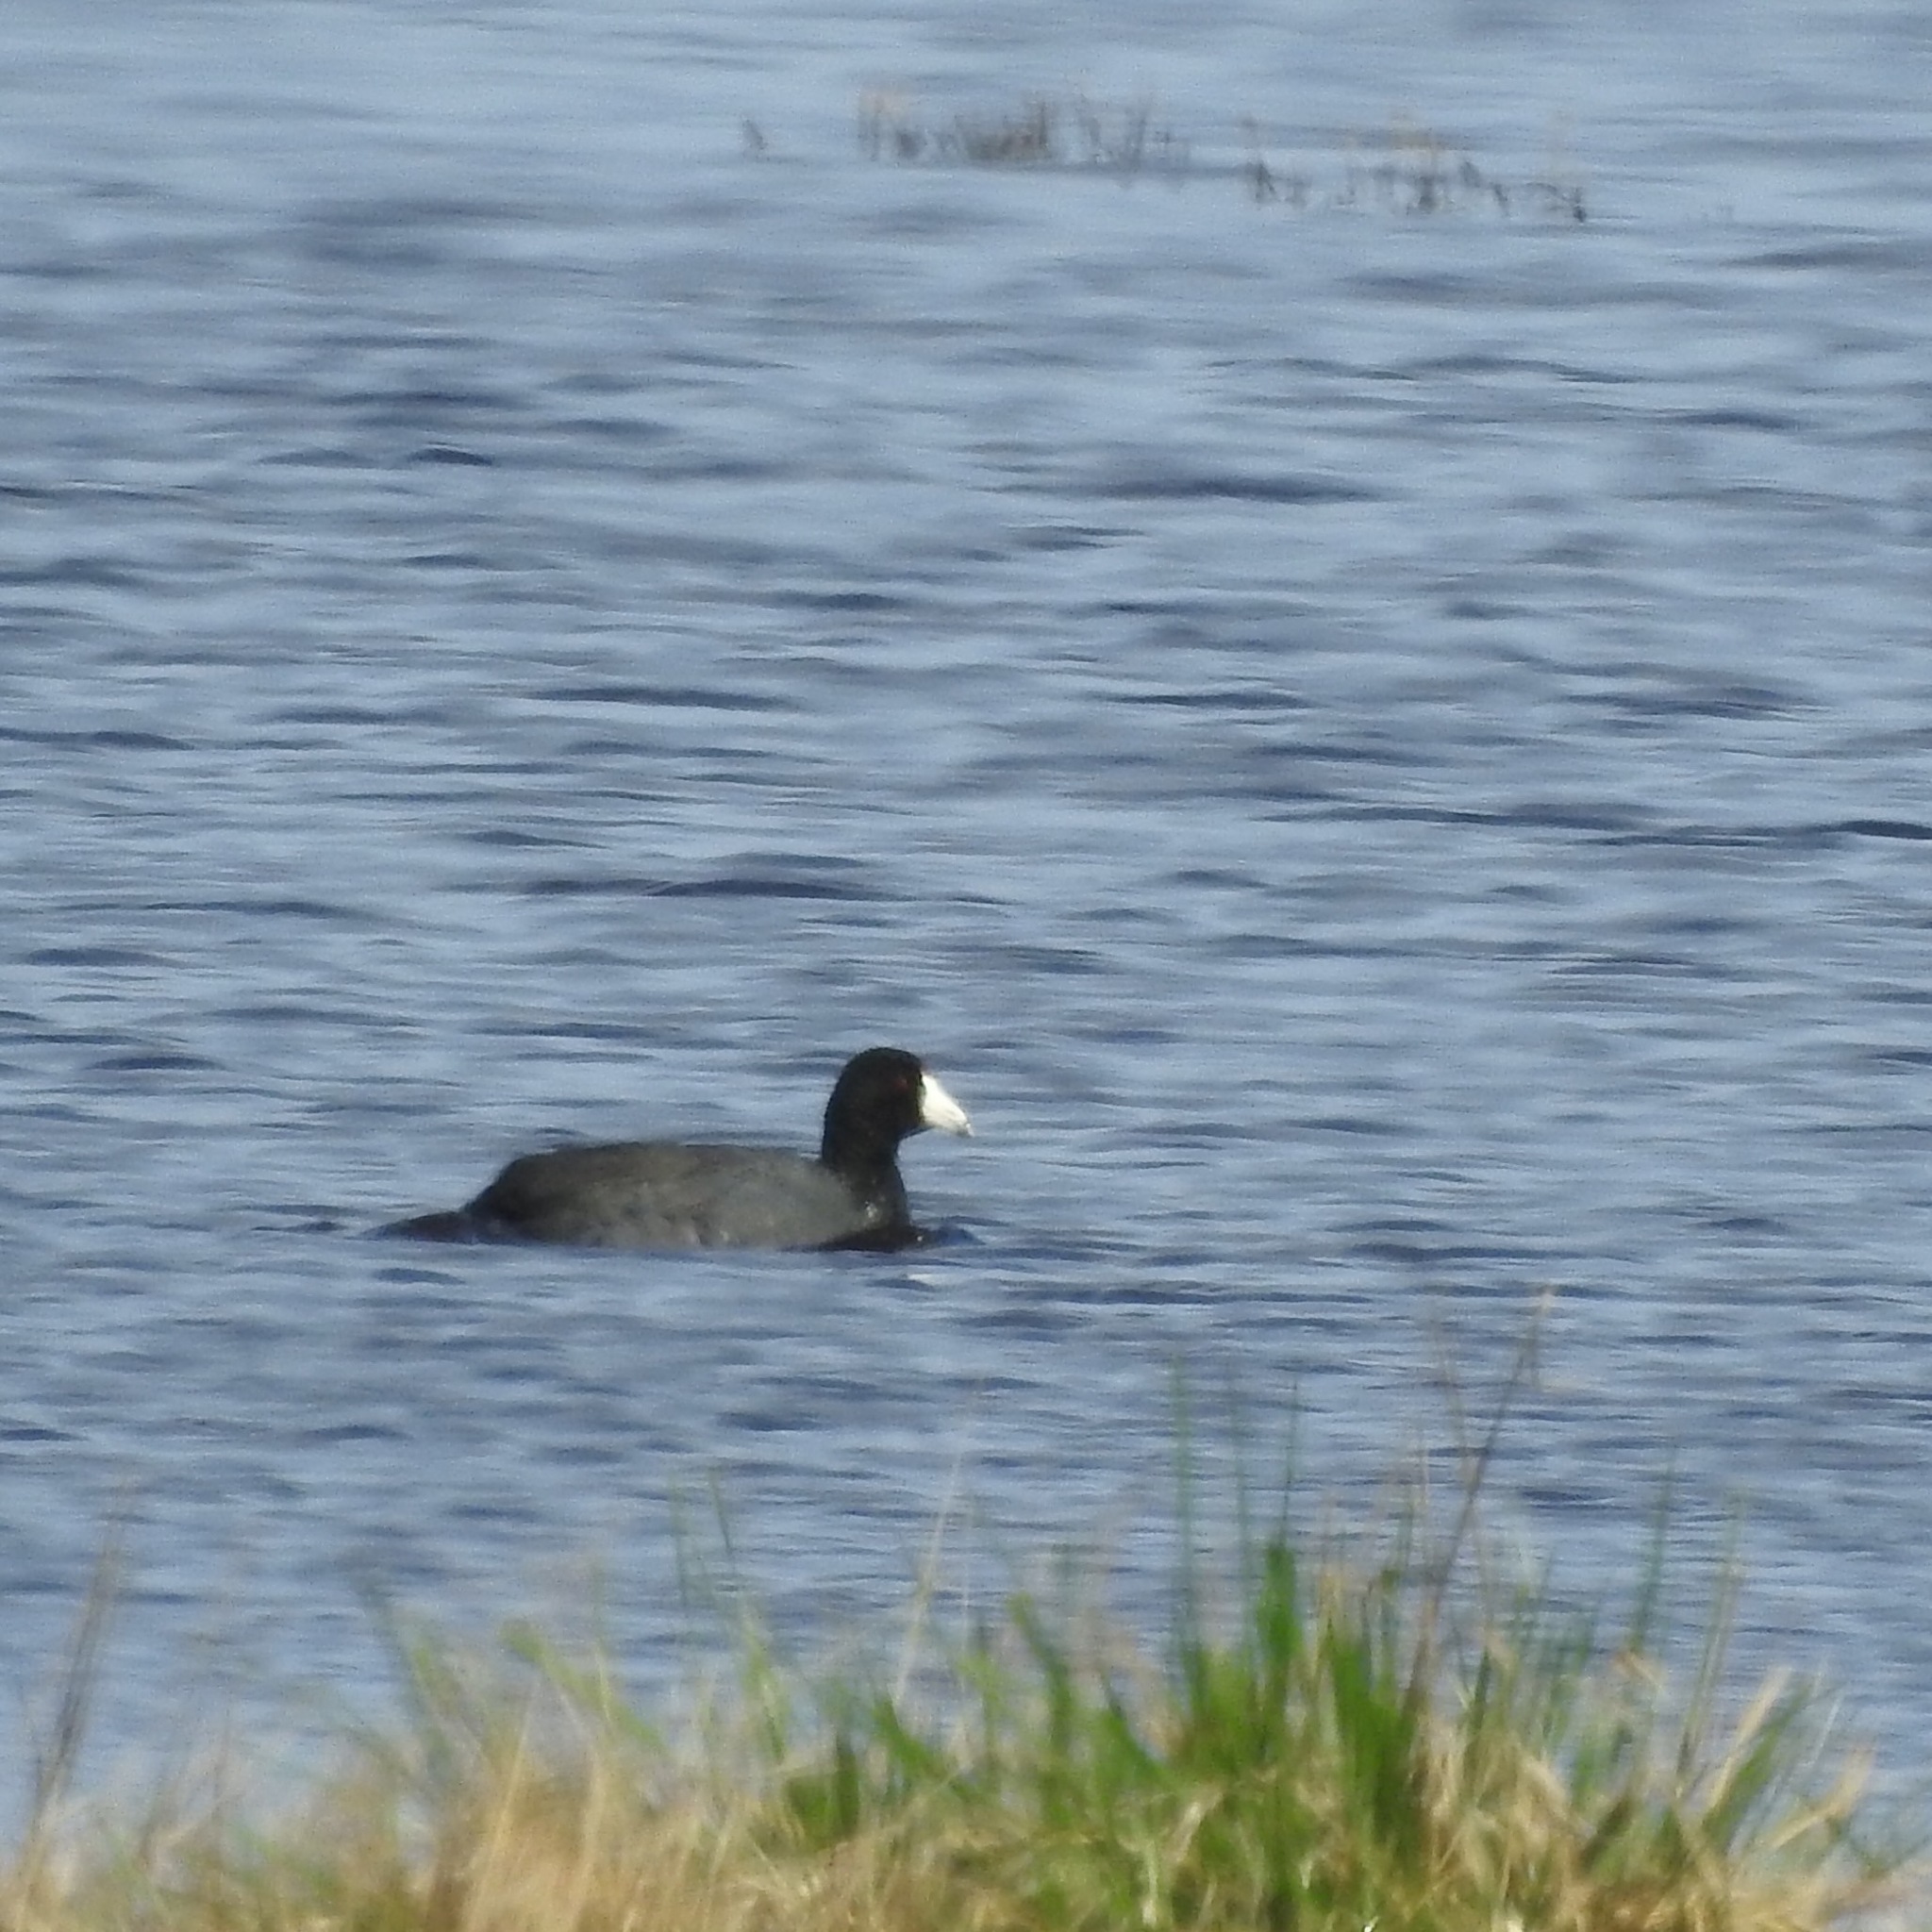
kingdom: Animalia
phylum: Chordata
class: Aves
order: Gruiformes
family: Rallidae
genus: Fulica
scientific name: Fulica americana
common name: American coot
